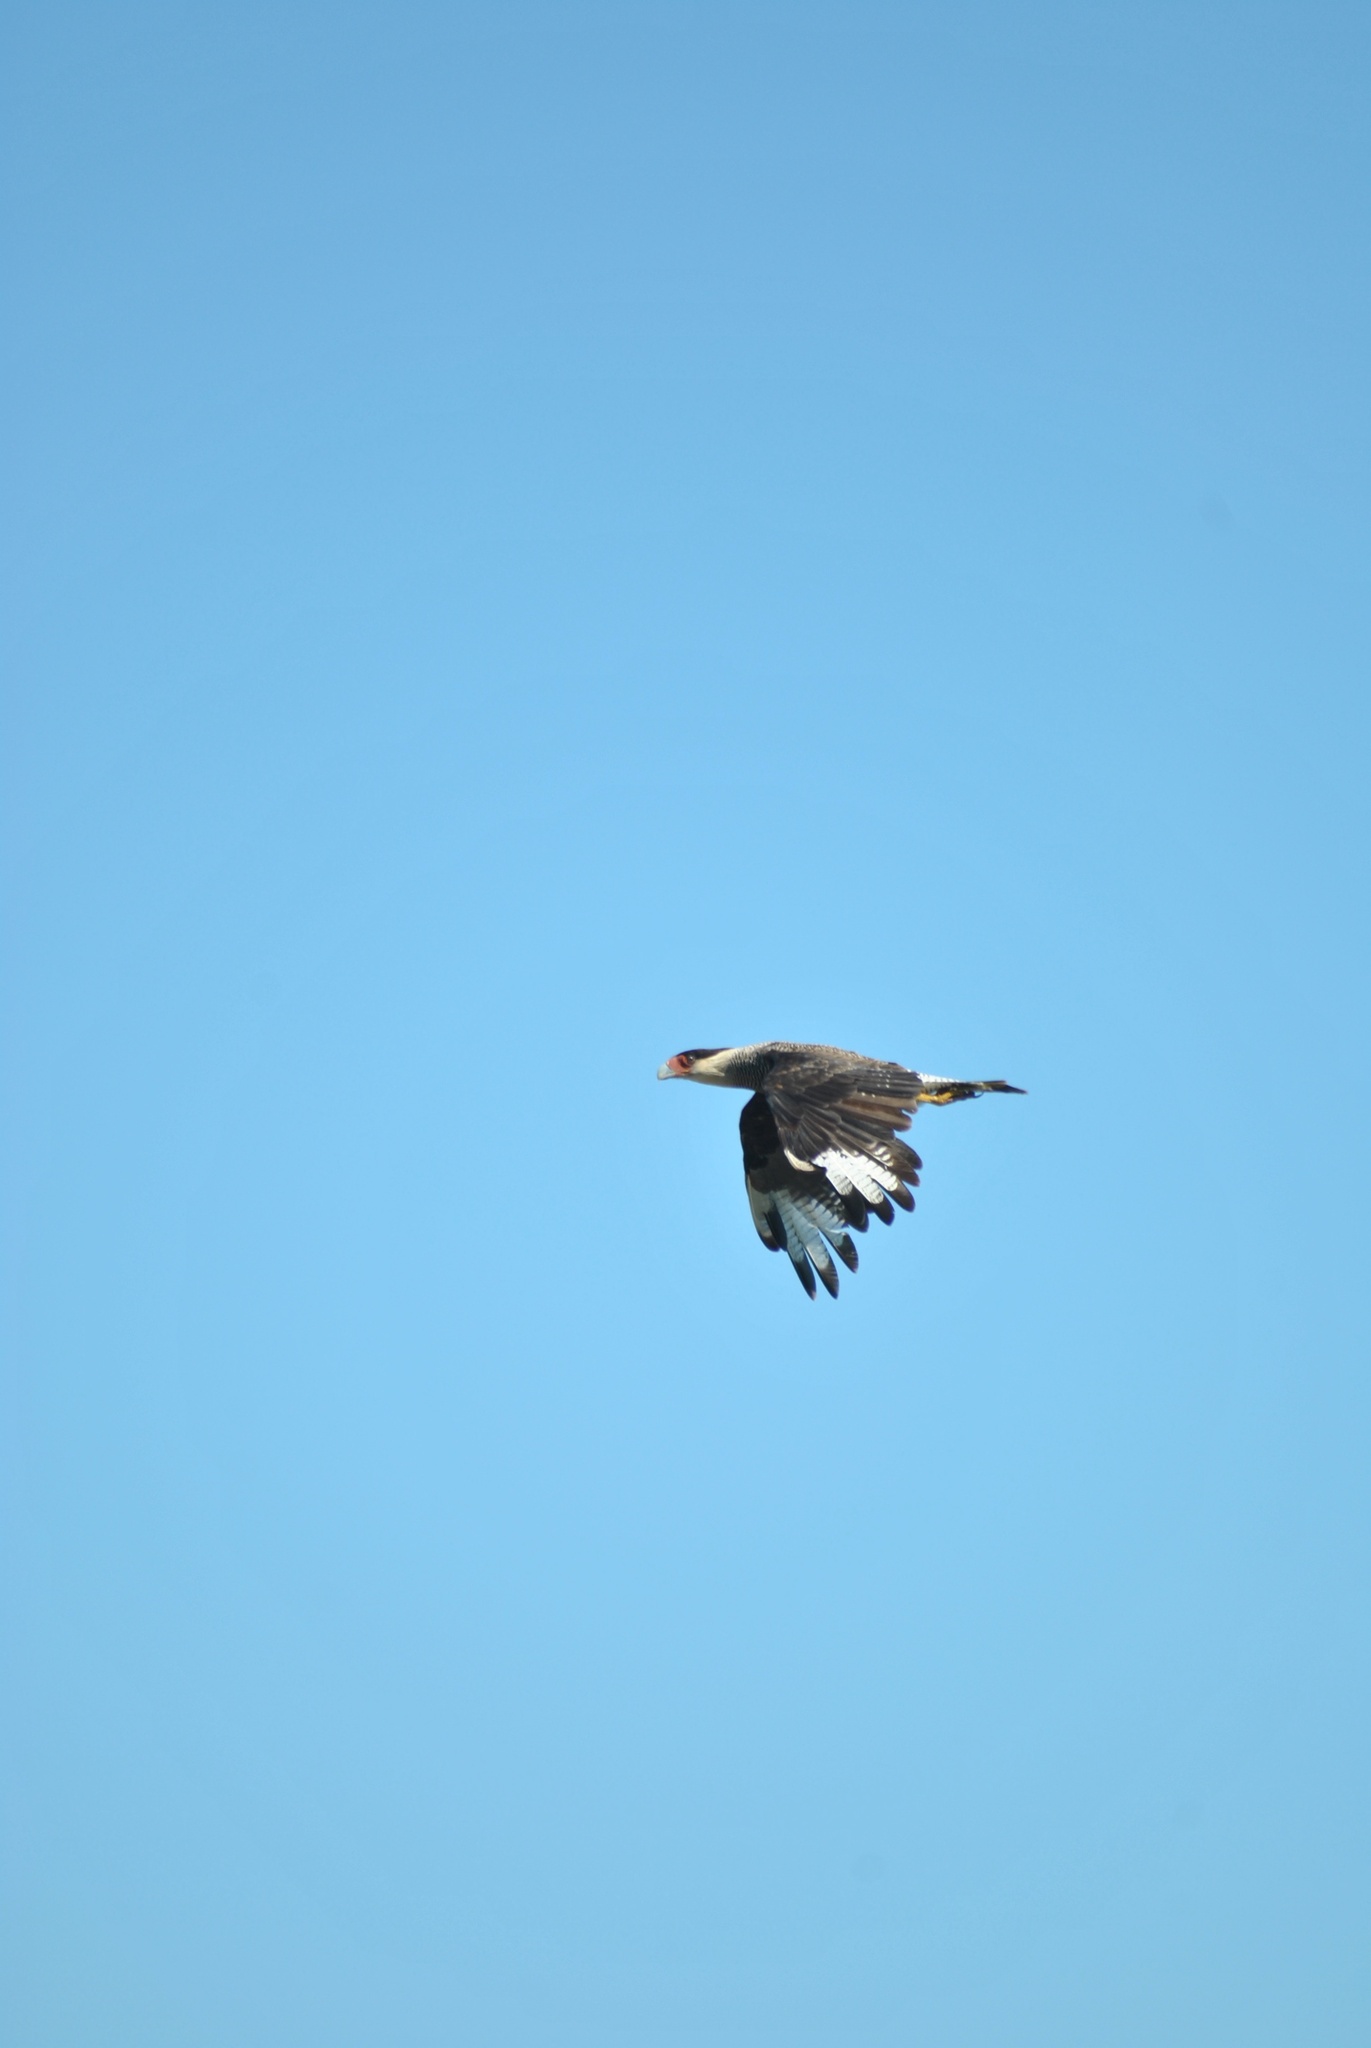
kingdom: Animalia
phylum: Chordata
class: Aves
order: Falconiformes
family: Falconidae
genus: Caracara
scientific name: Caracara plancus
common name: Southern caracara
